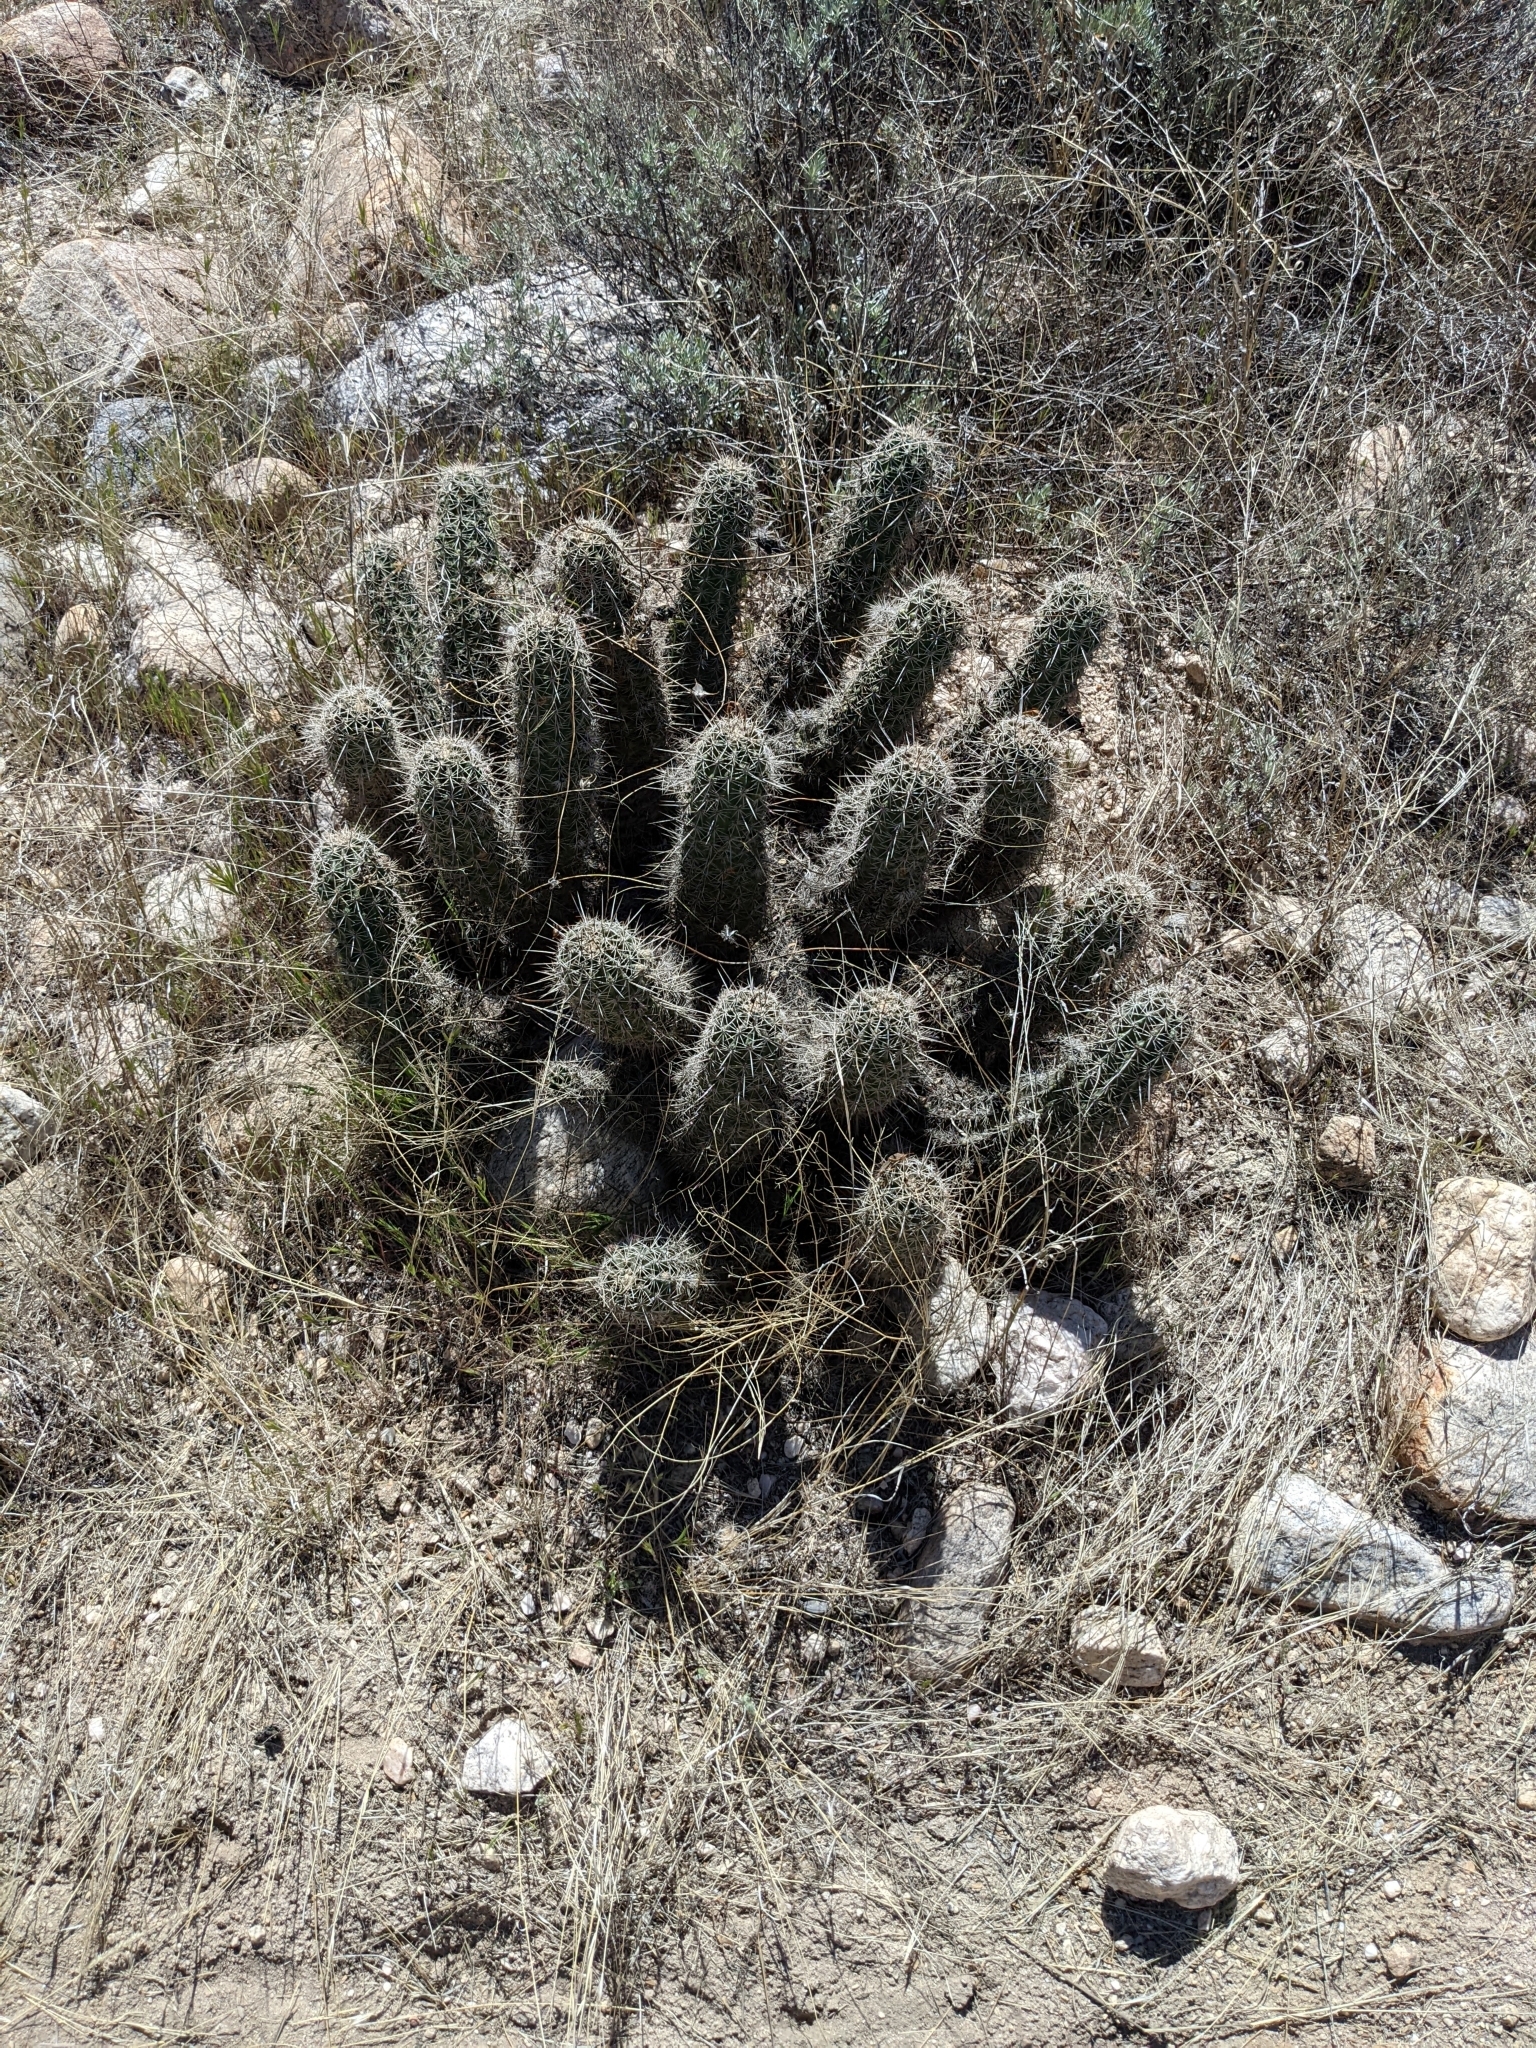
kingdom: Plantae
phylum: Tracheophyta
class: Magnoliopsida
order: Caryophyllales
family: Cactaceae
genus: Echinocereus
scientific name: Echinocereus fasciculatus
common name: Bundle hedgehog
